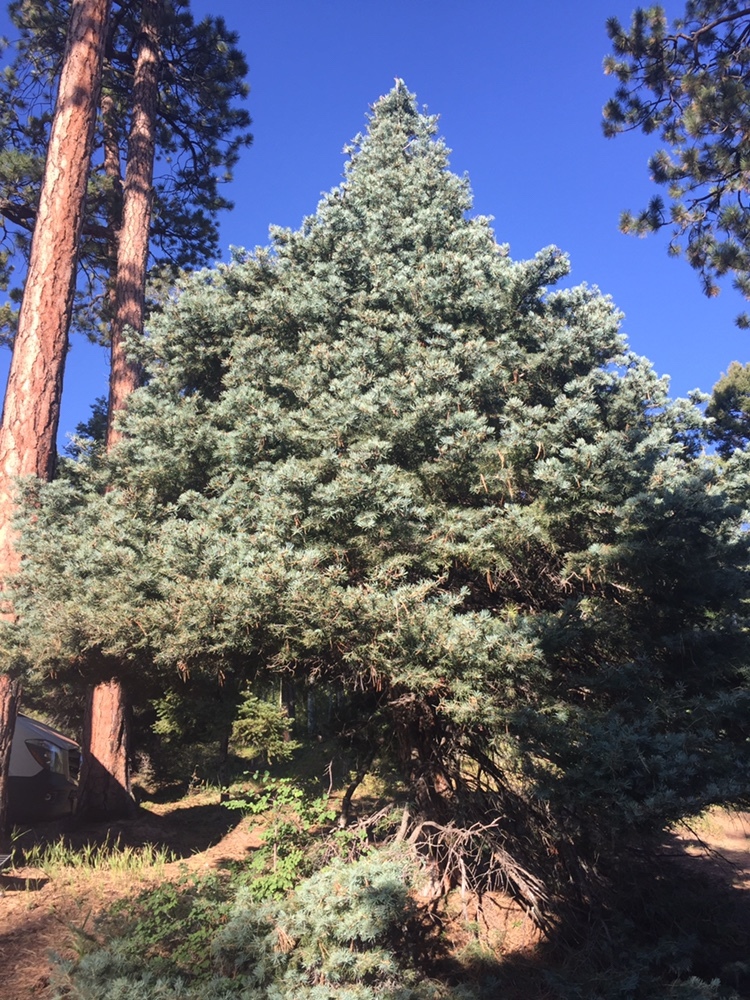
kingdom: Plantae
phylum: Tracheophyta
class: Pinopsida
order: Pinales
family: Pinaceae
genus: Abies
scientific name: Abies concolor
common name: Colorado fir
